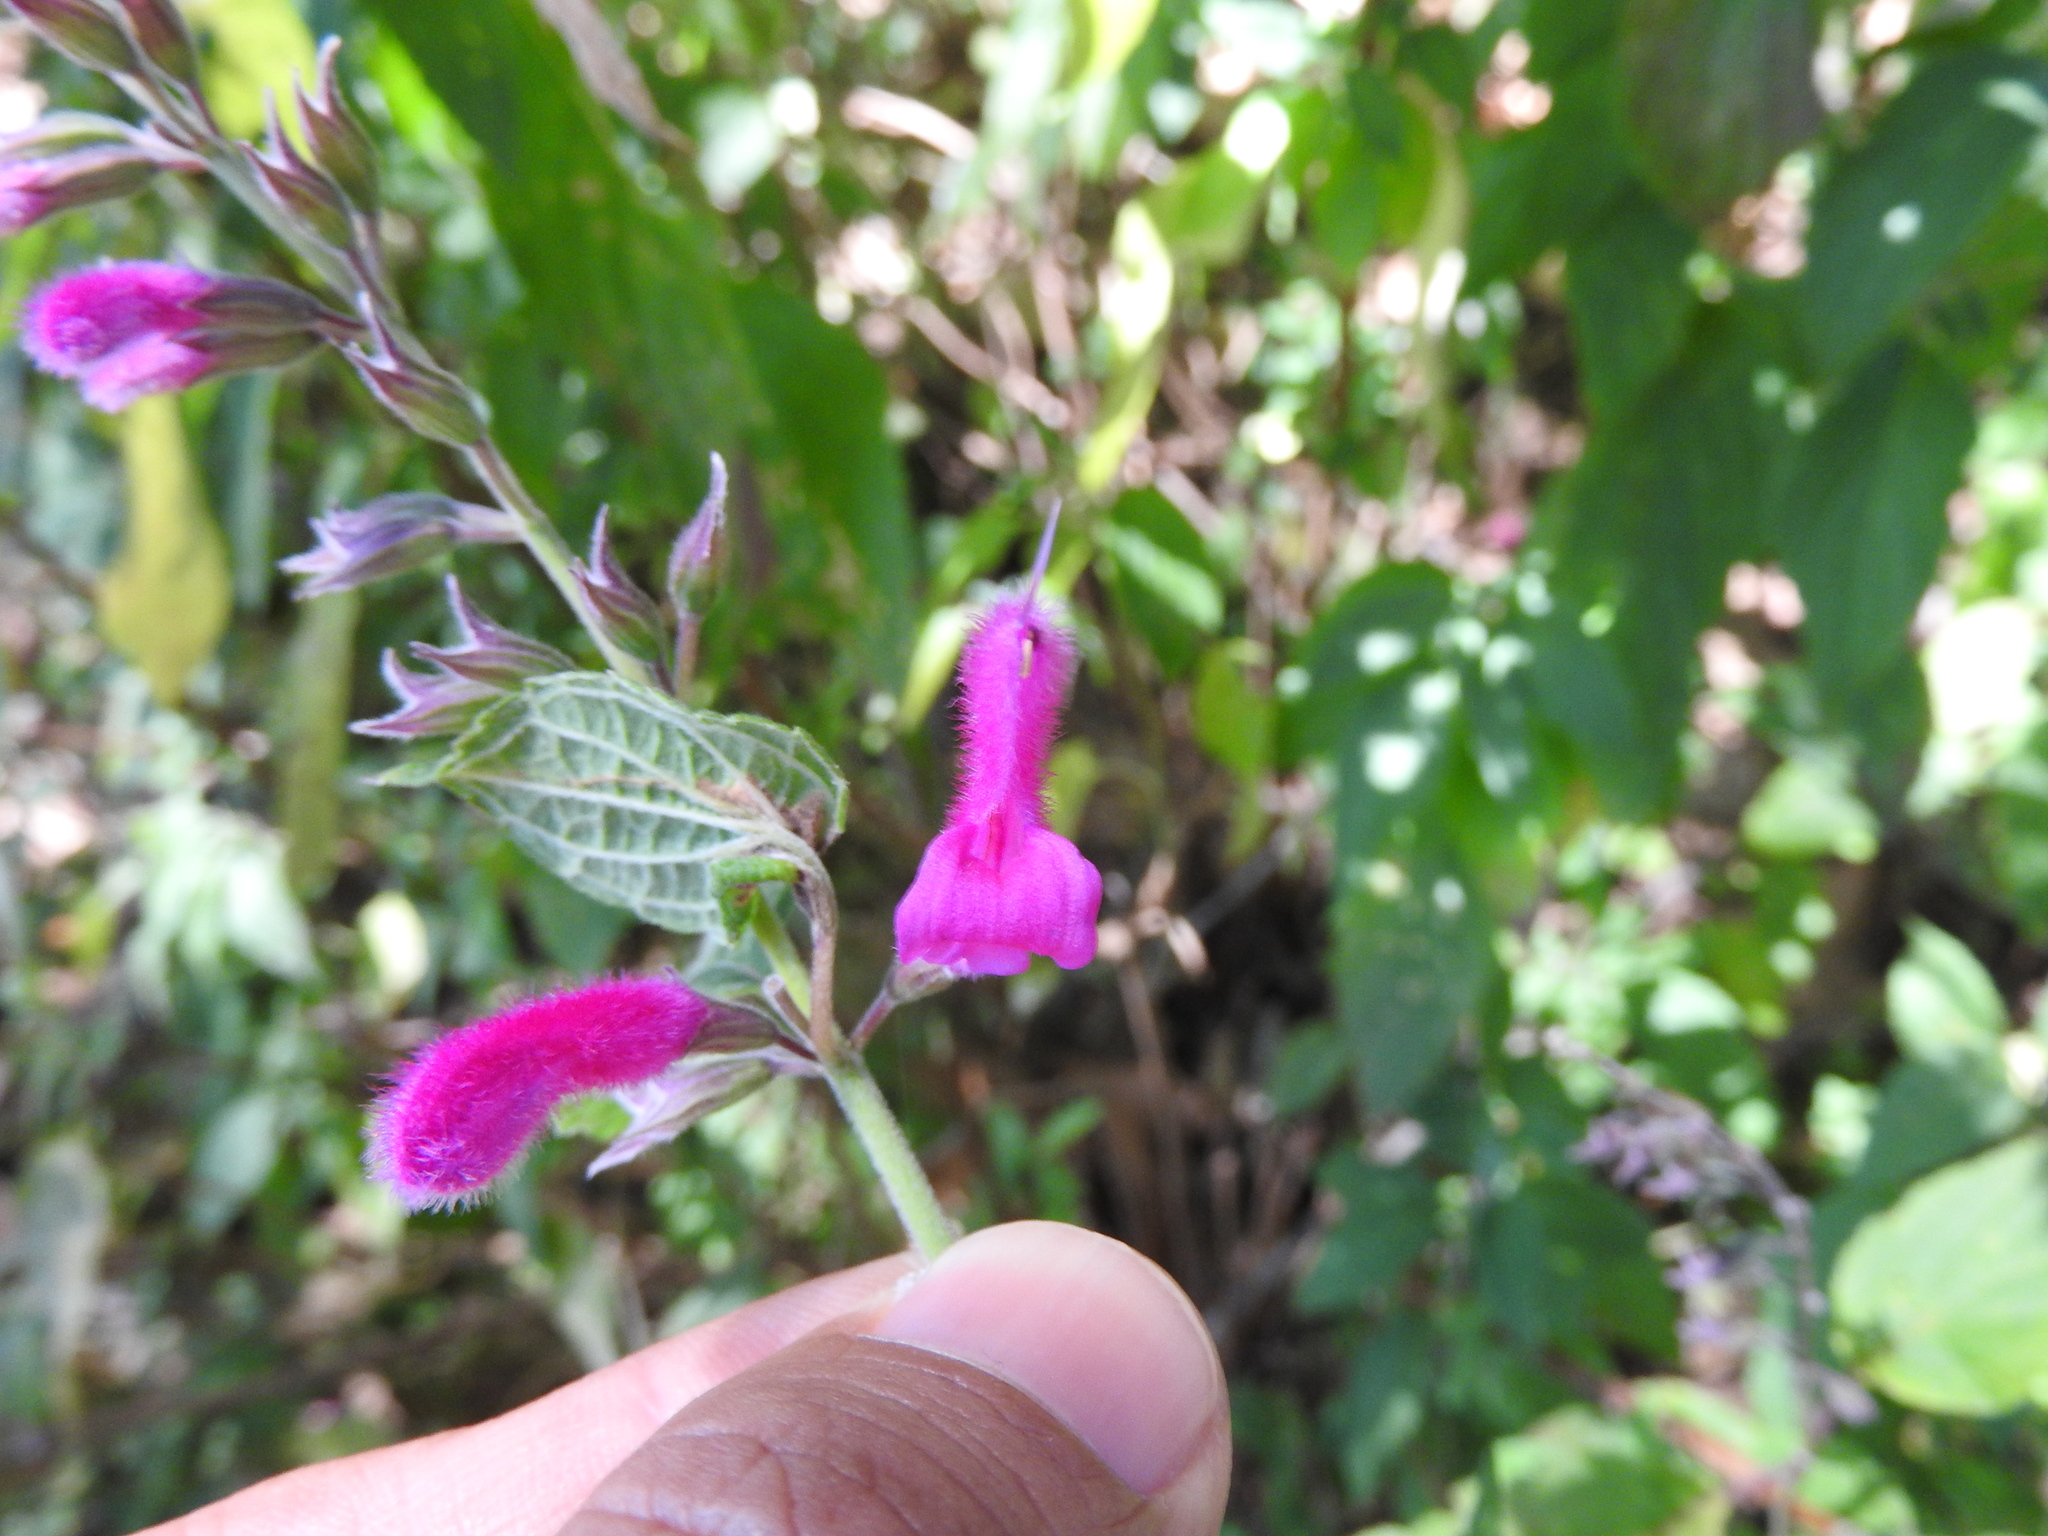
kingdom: Plantae
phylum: Tracheophyta
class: Magnoliopsida
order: Lamiales
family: Lamiaceae
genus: Salvia
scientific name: Salvia curviflora
